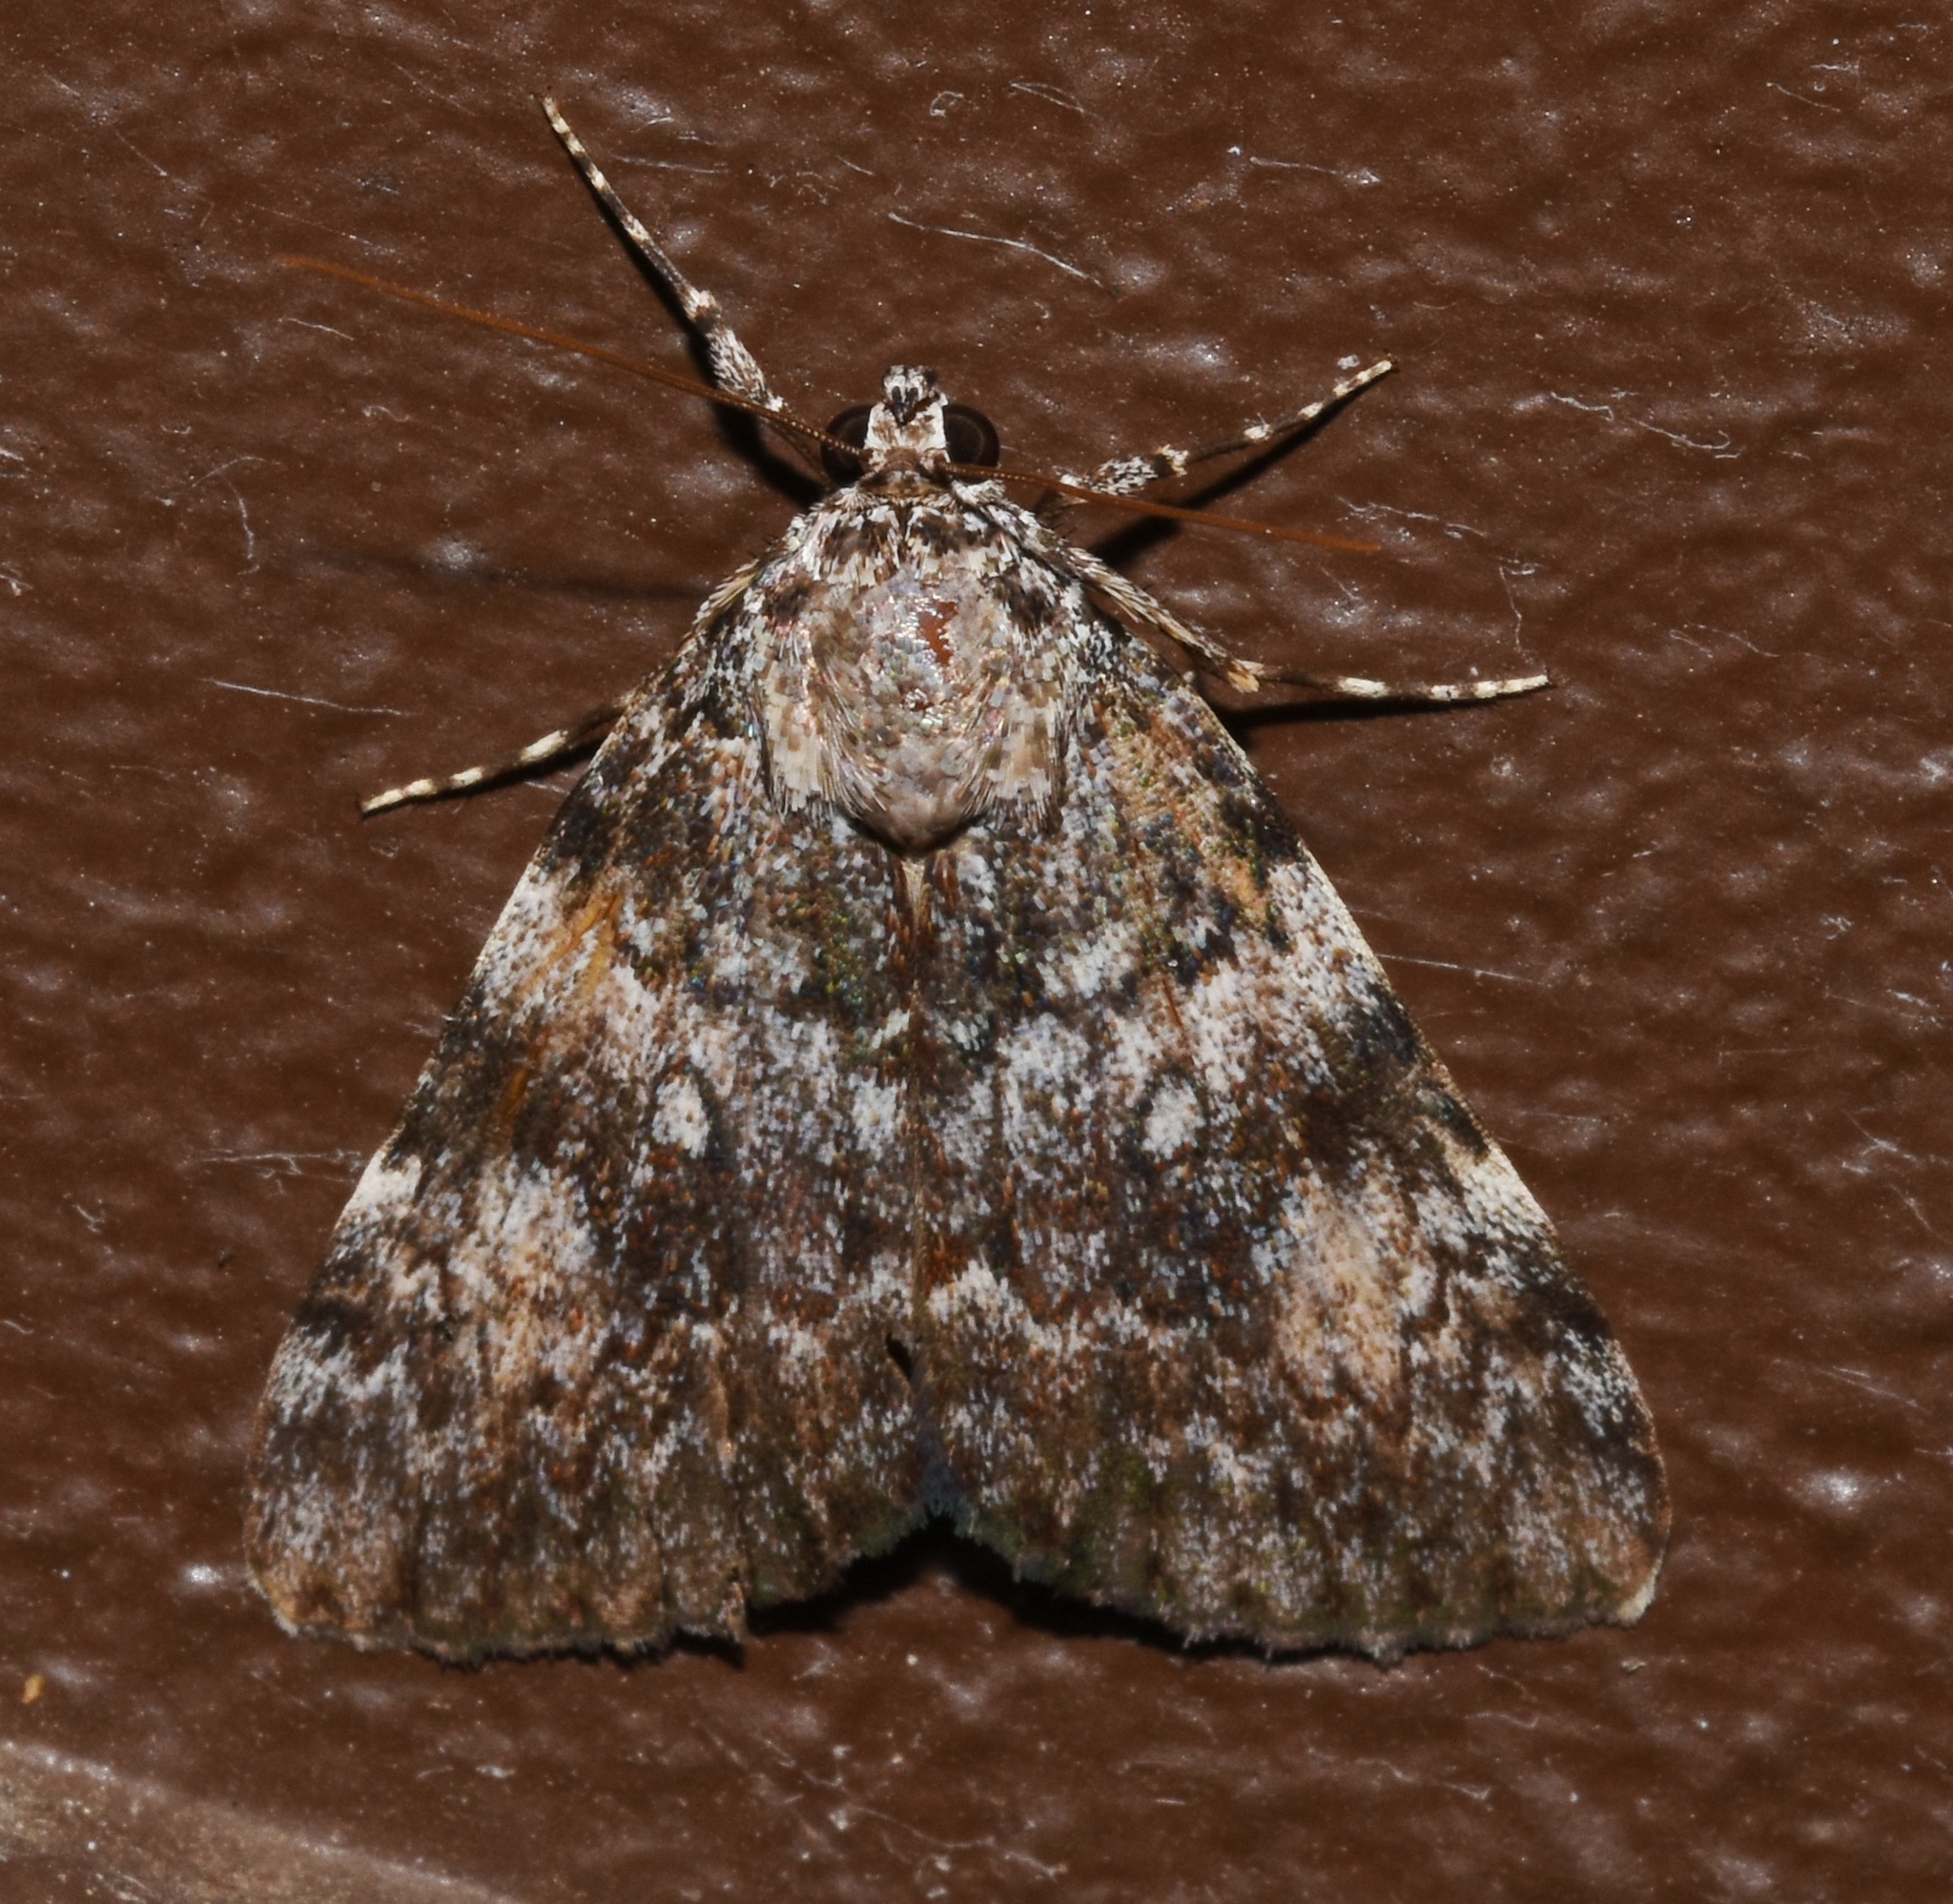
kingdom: Animalia
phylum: Arthropoda
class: Insecta
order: Lepidoptera
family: Erebidae
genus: Catocala
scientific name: Catocala lineella
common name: Little lined underwing
